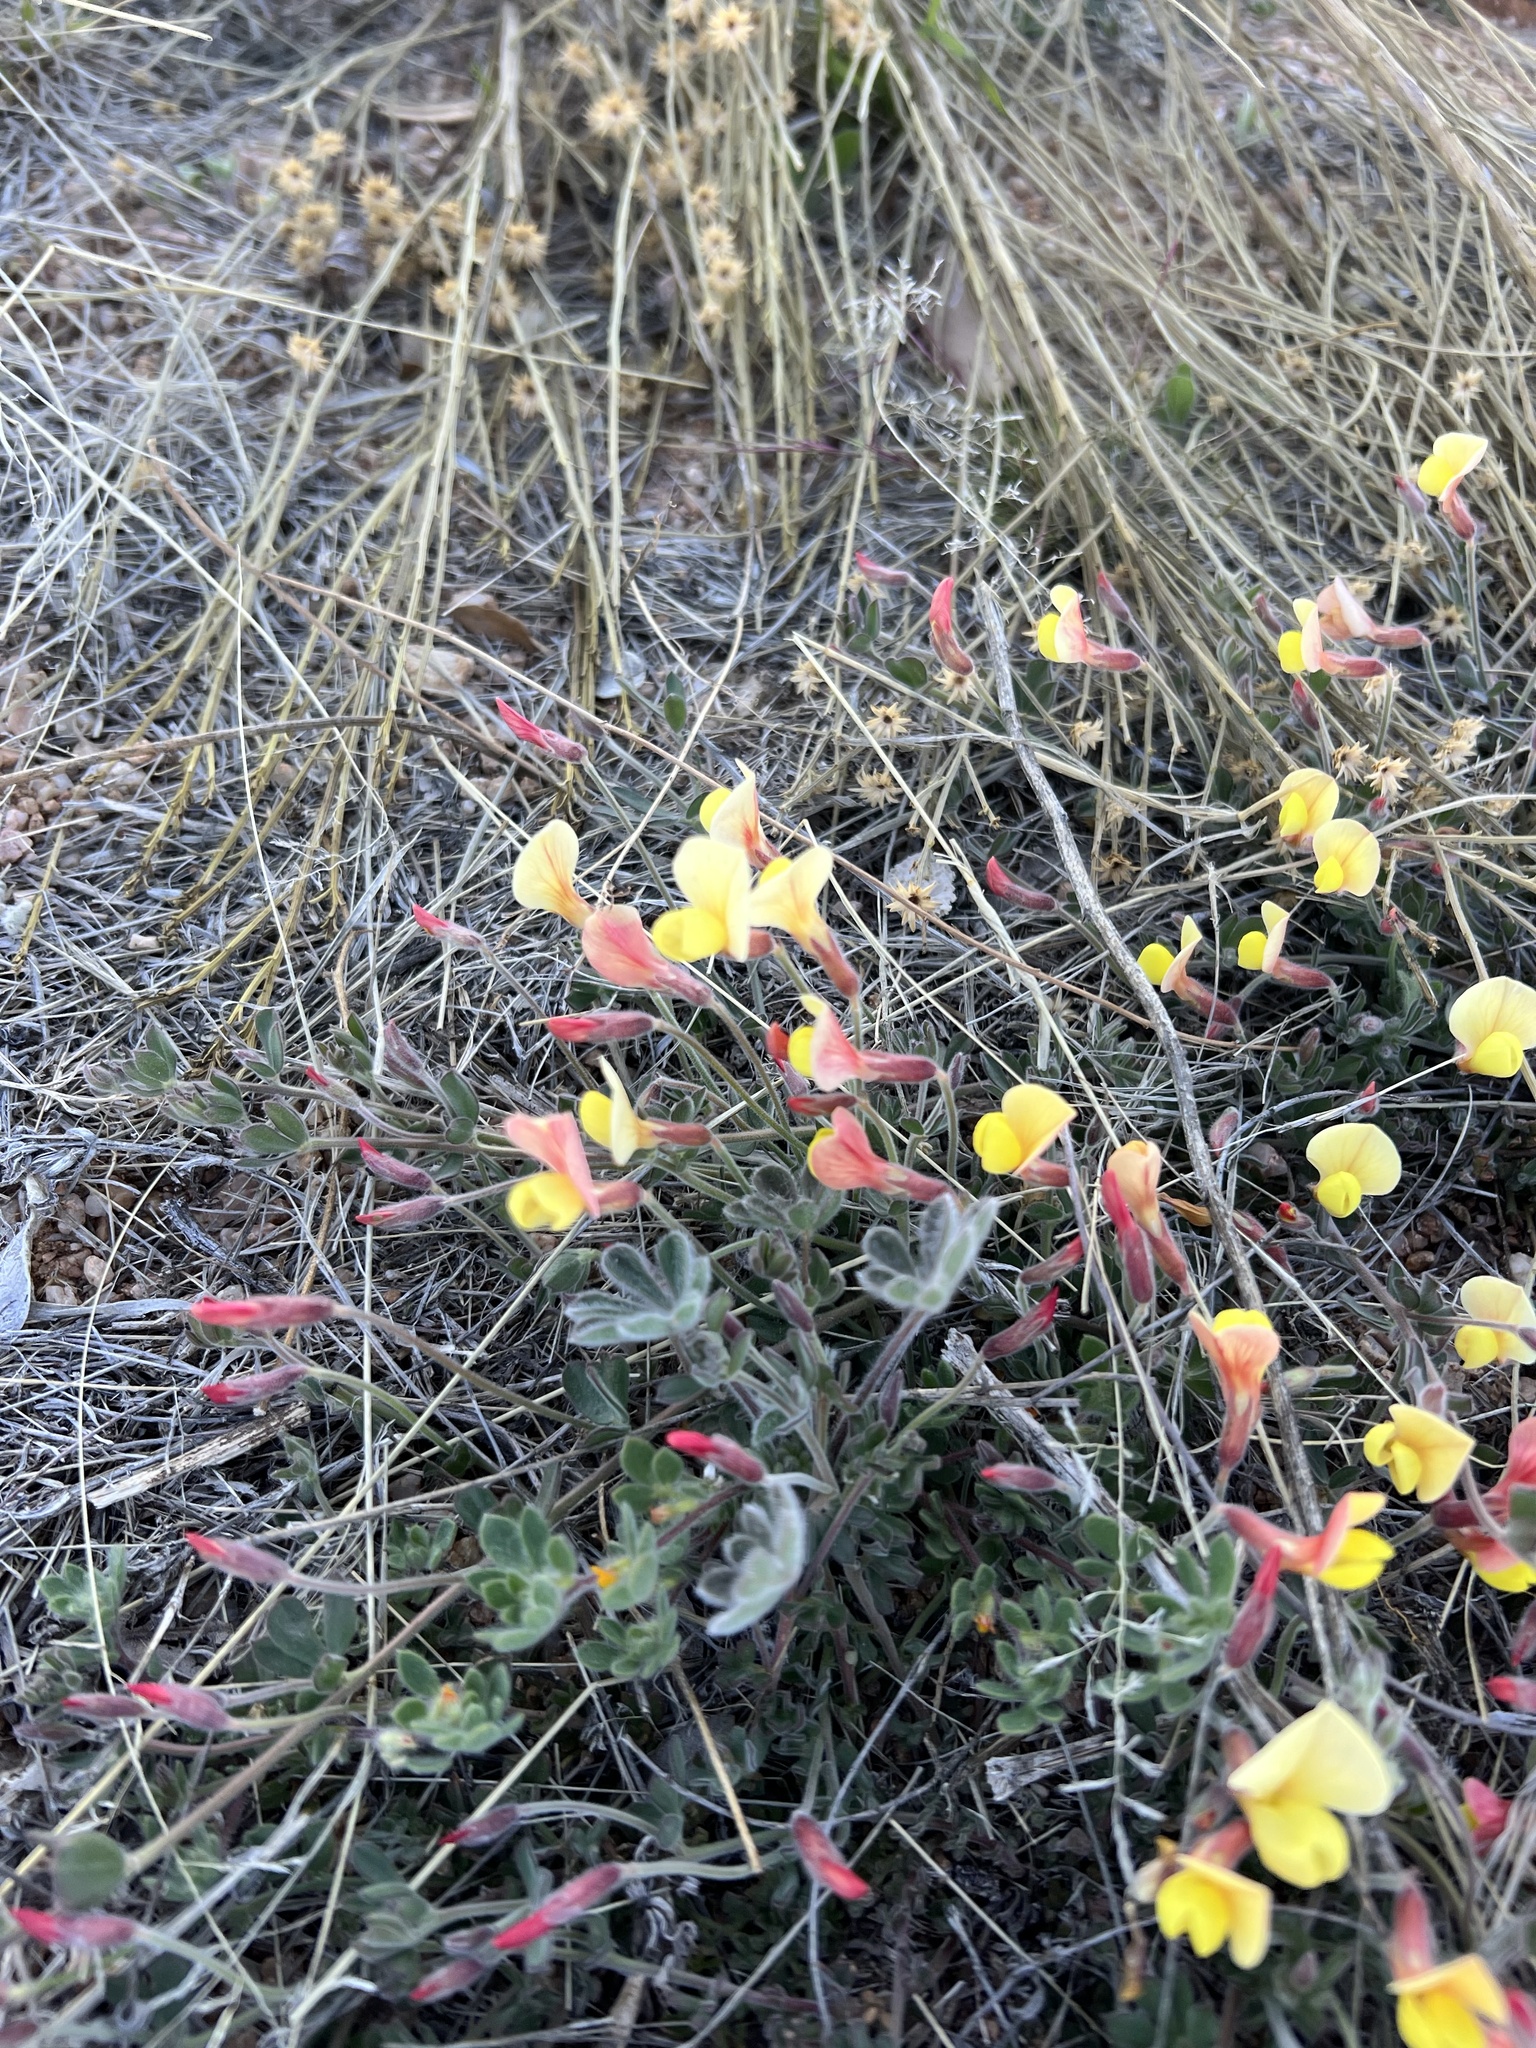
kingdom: Plantae
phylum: Tracheophyta
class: Magnoliopsida
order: Fabales
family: Fabaceae
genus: Acmispon
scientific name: Acmispon neomexicanus
